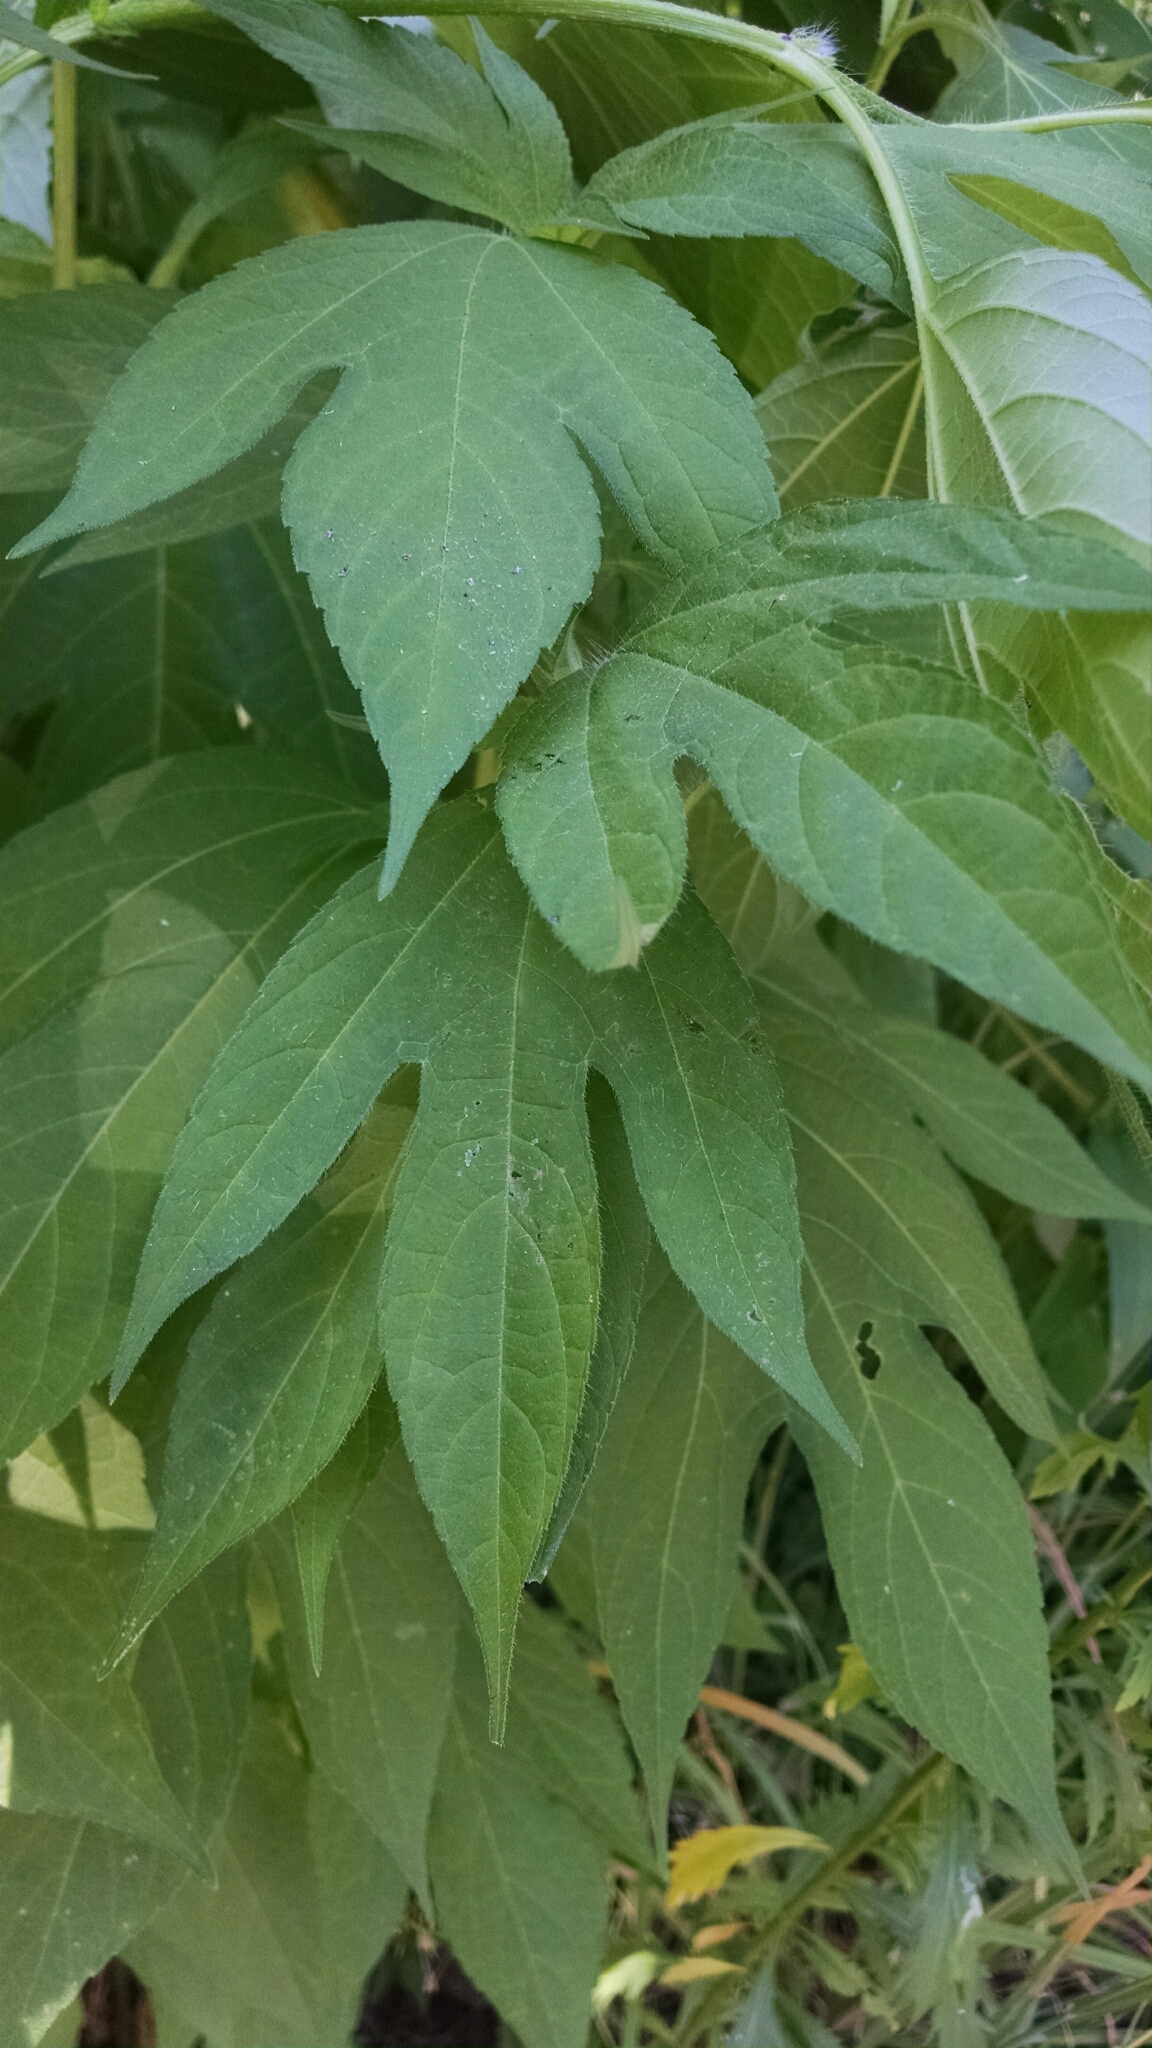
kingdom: Plantae
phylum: Tracheophyta
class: Magnoliopsida
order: Asterales
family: Asteraceae
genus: Ambrosia
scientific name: Ambrosia trifida
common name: Giant ragweed
